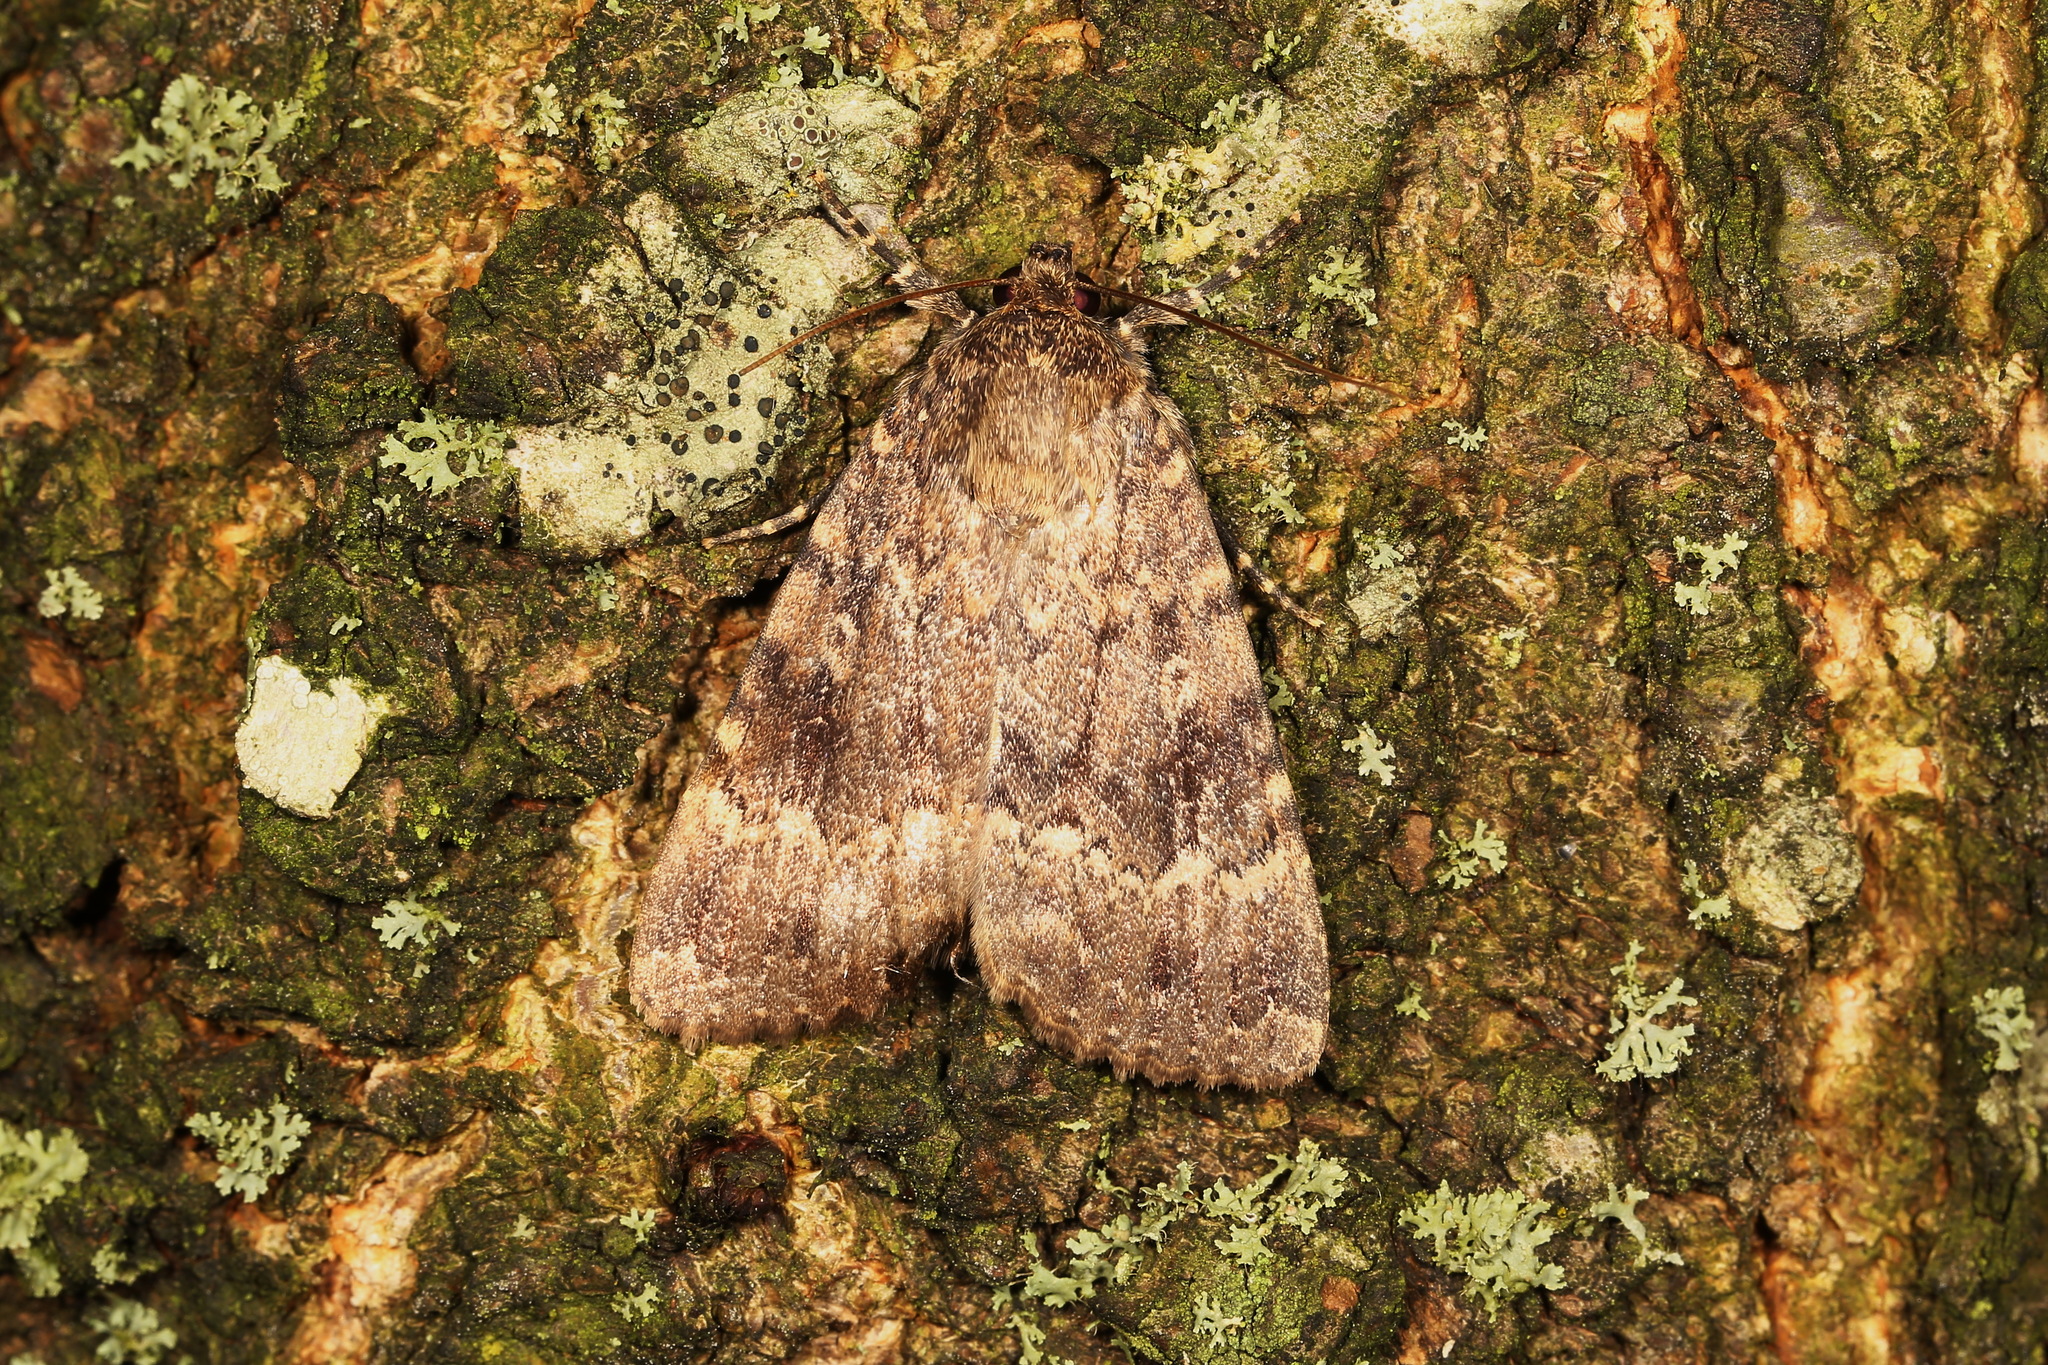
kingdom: Animalia
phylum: Arthropoda
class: Insecta
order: Lepidoptera
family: Noctuidae
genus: Amphipyra
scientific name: Amphipyra pyramidea
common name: Copper underwing
